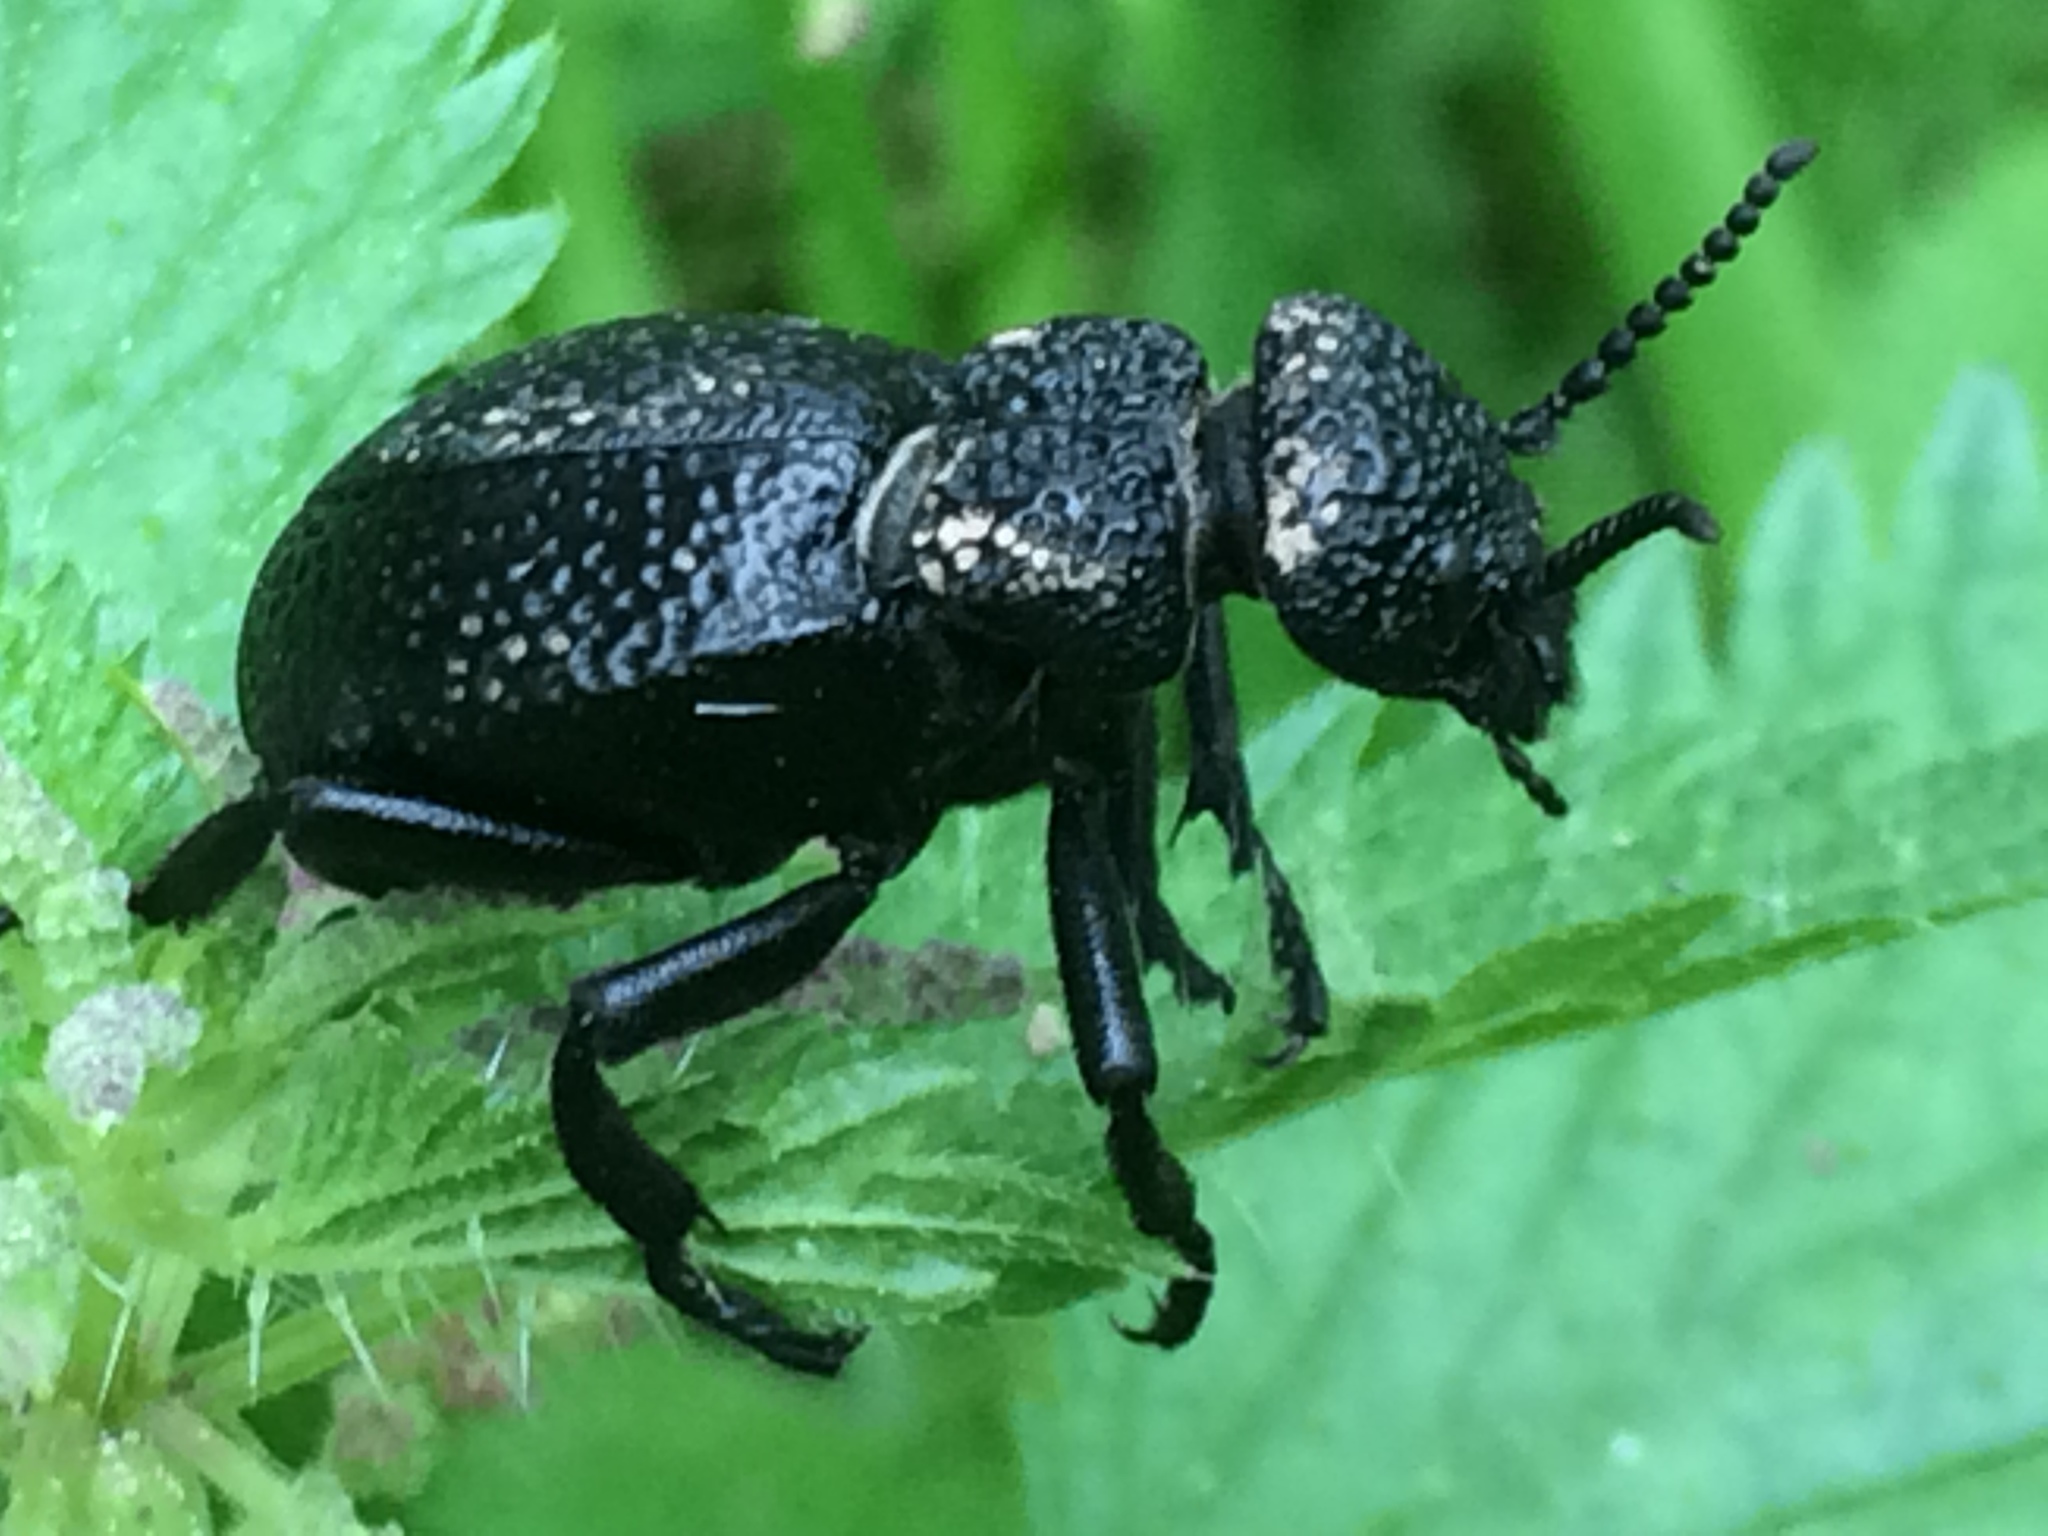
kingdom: Animalia
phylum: Arthropoda
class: Insecta
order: Coleoptera
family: Meloidae
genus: Meloe
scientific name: Meloe
